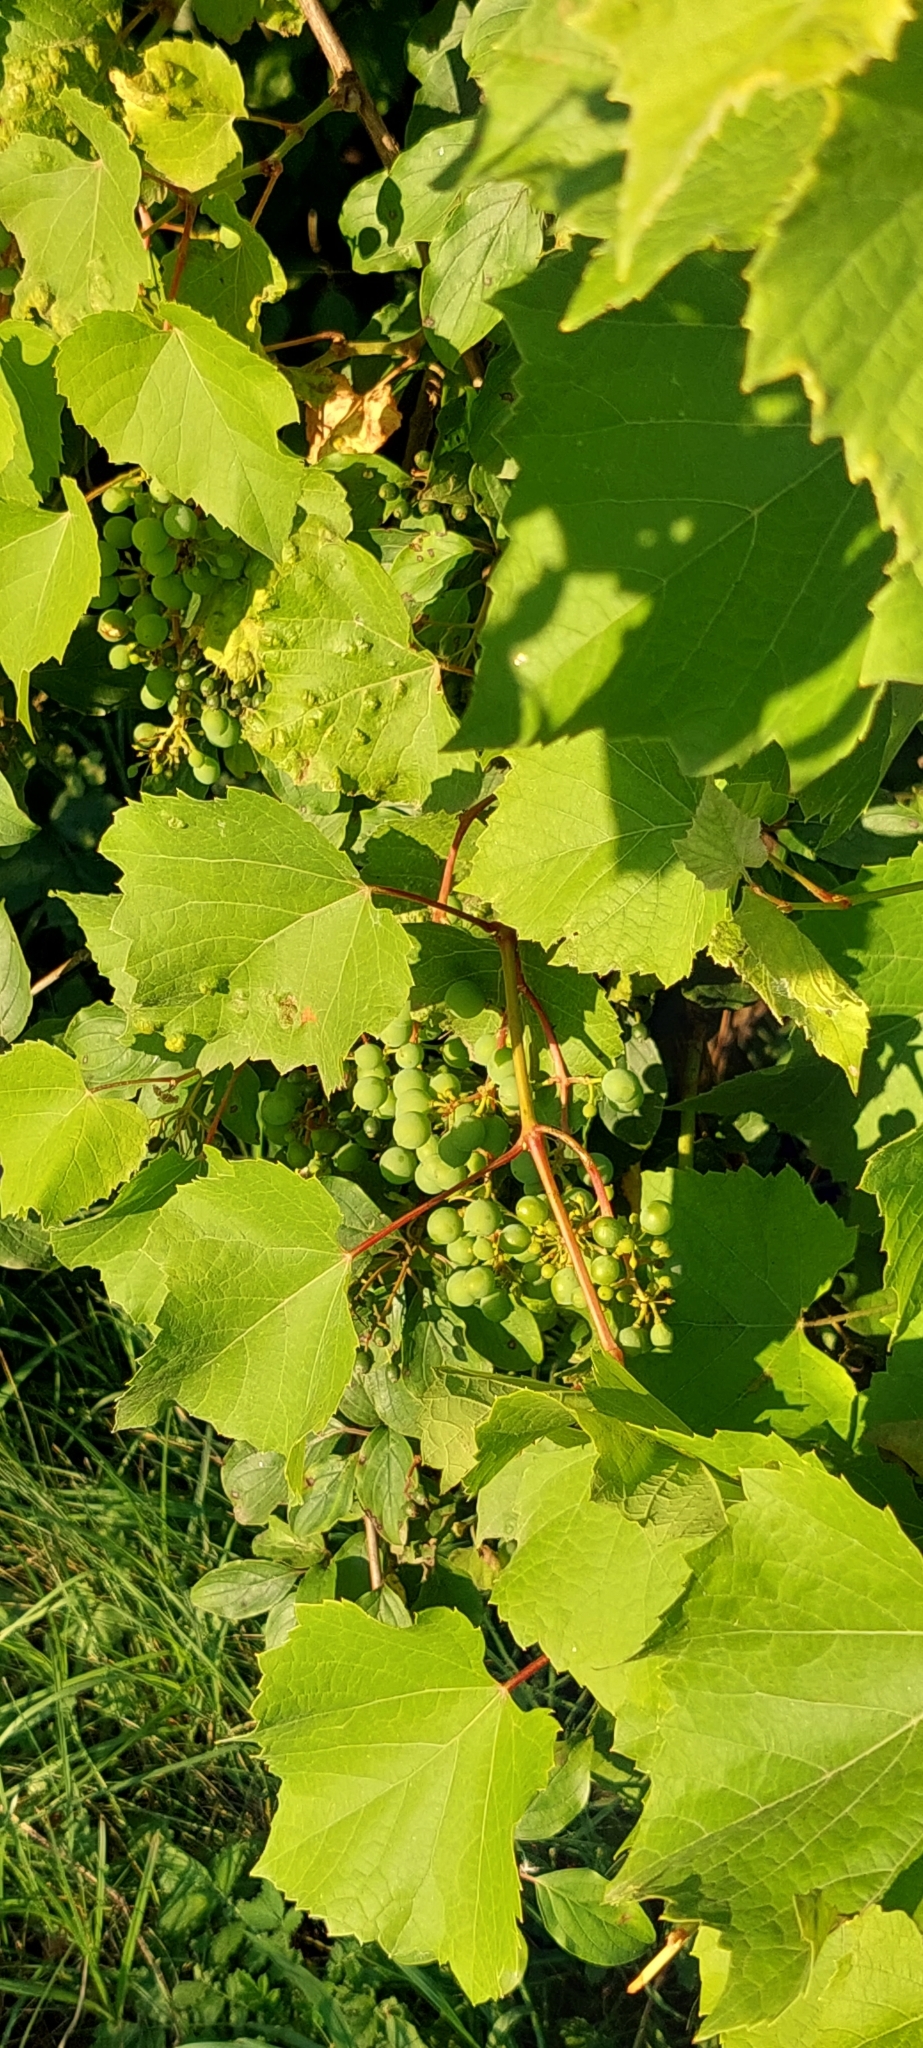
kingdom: Plantae
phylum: Tracheophyta
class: Magnoliopsida
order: Vitales
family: Vitaceae
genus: Vitis
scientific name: Vitis vinifera
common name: Grape-vine
